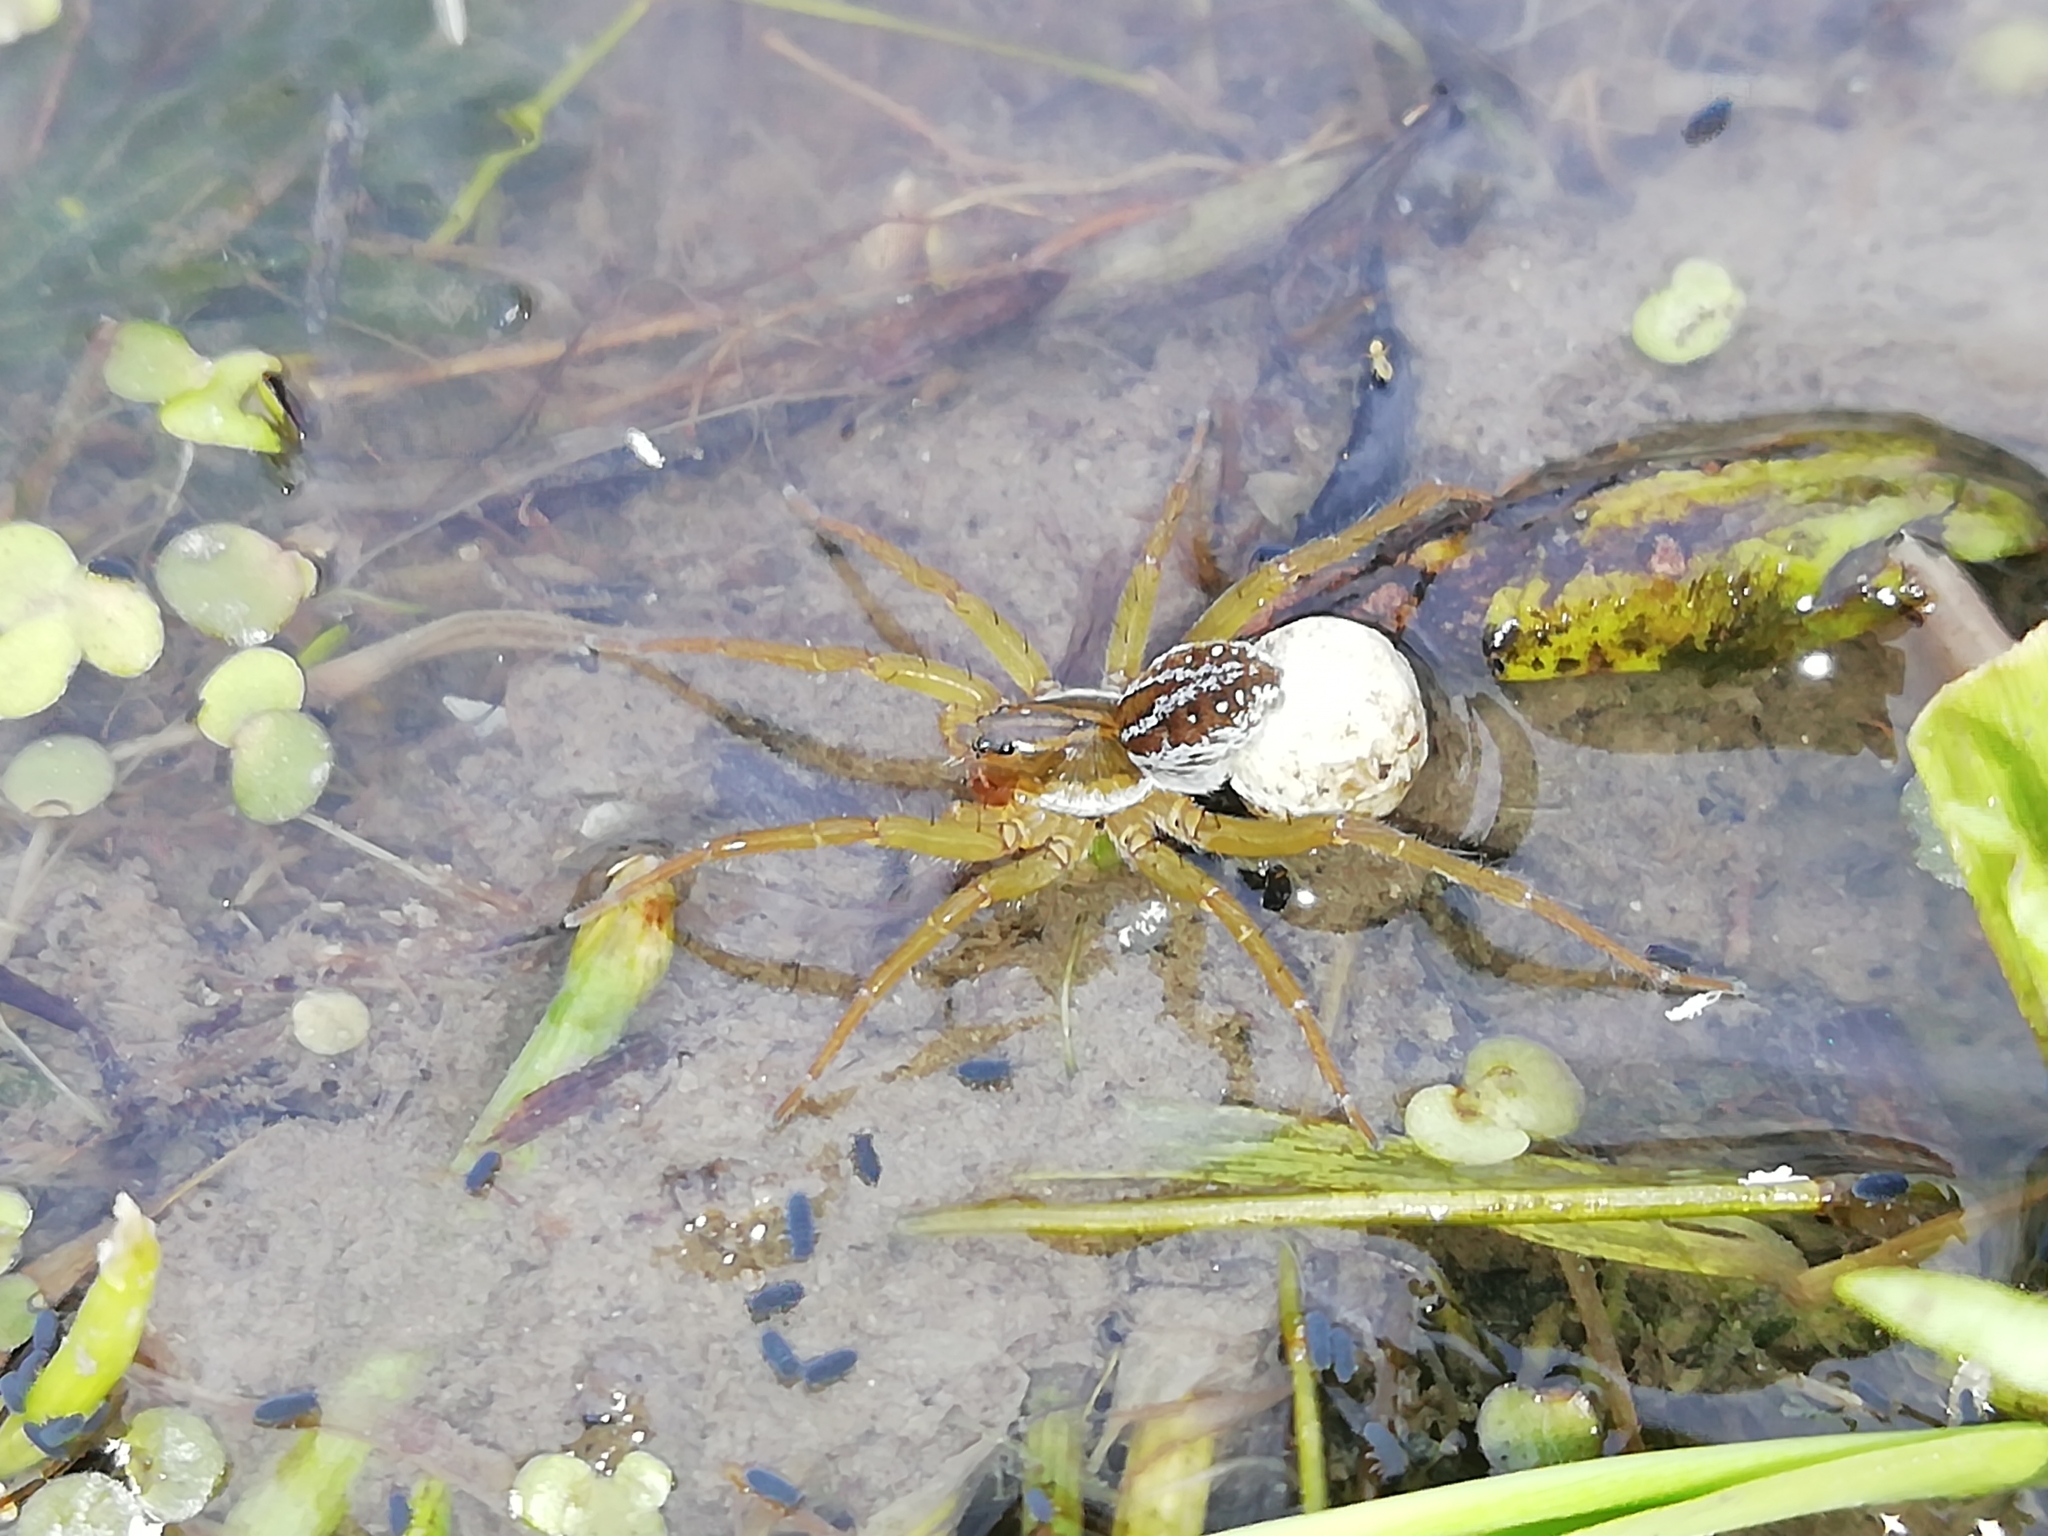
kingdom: Animalia
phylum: Arthropoda
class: Arachnida
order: Araneae
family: Lycosidae
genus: Pirata
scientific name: Pirata piraticus
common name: Pirate otter spider
